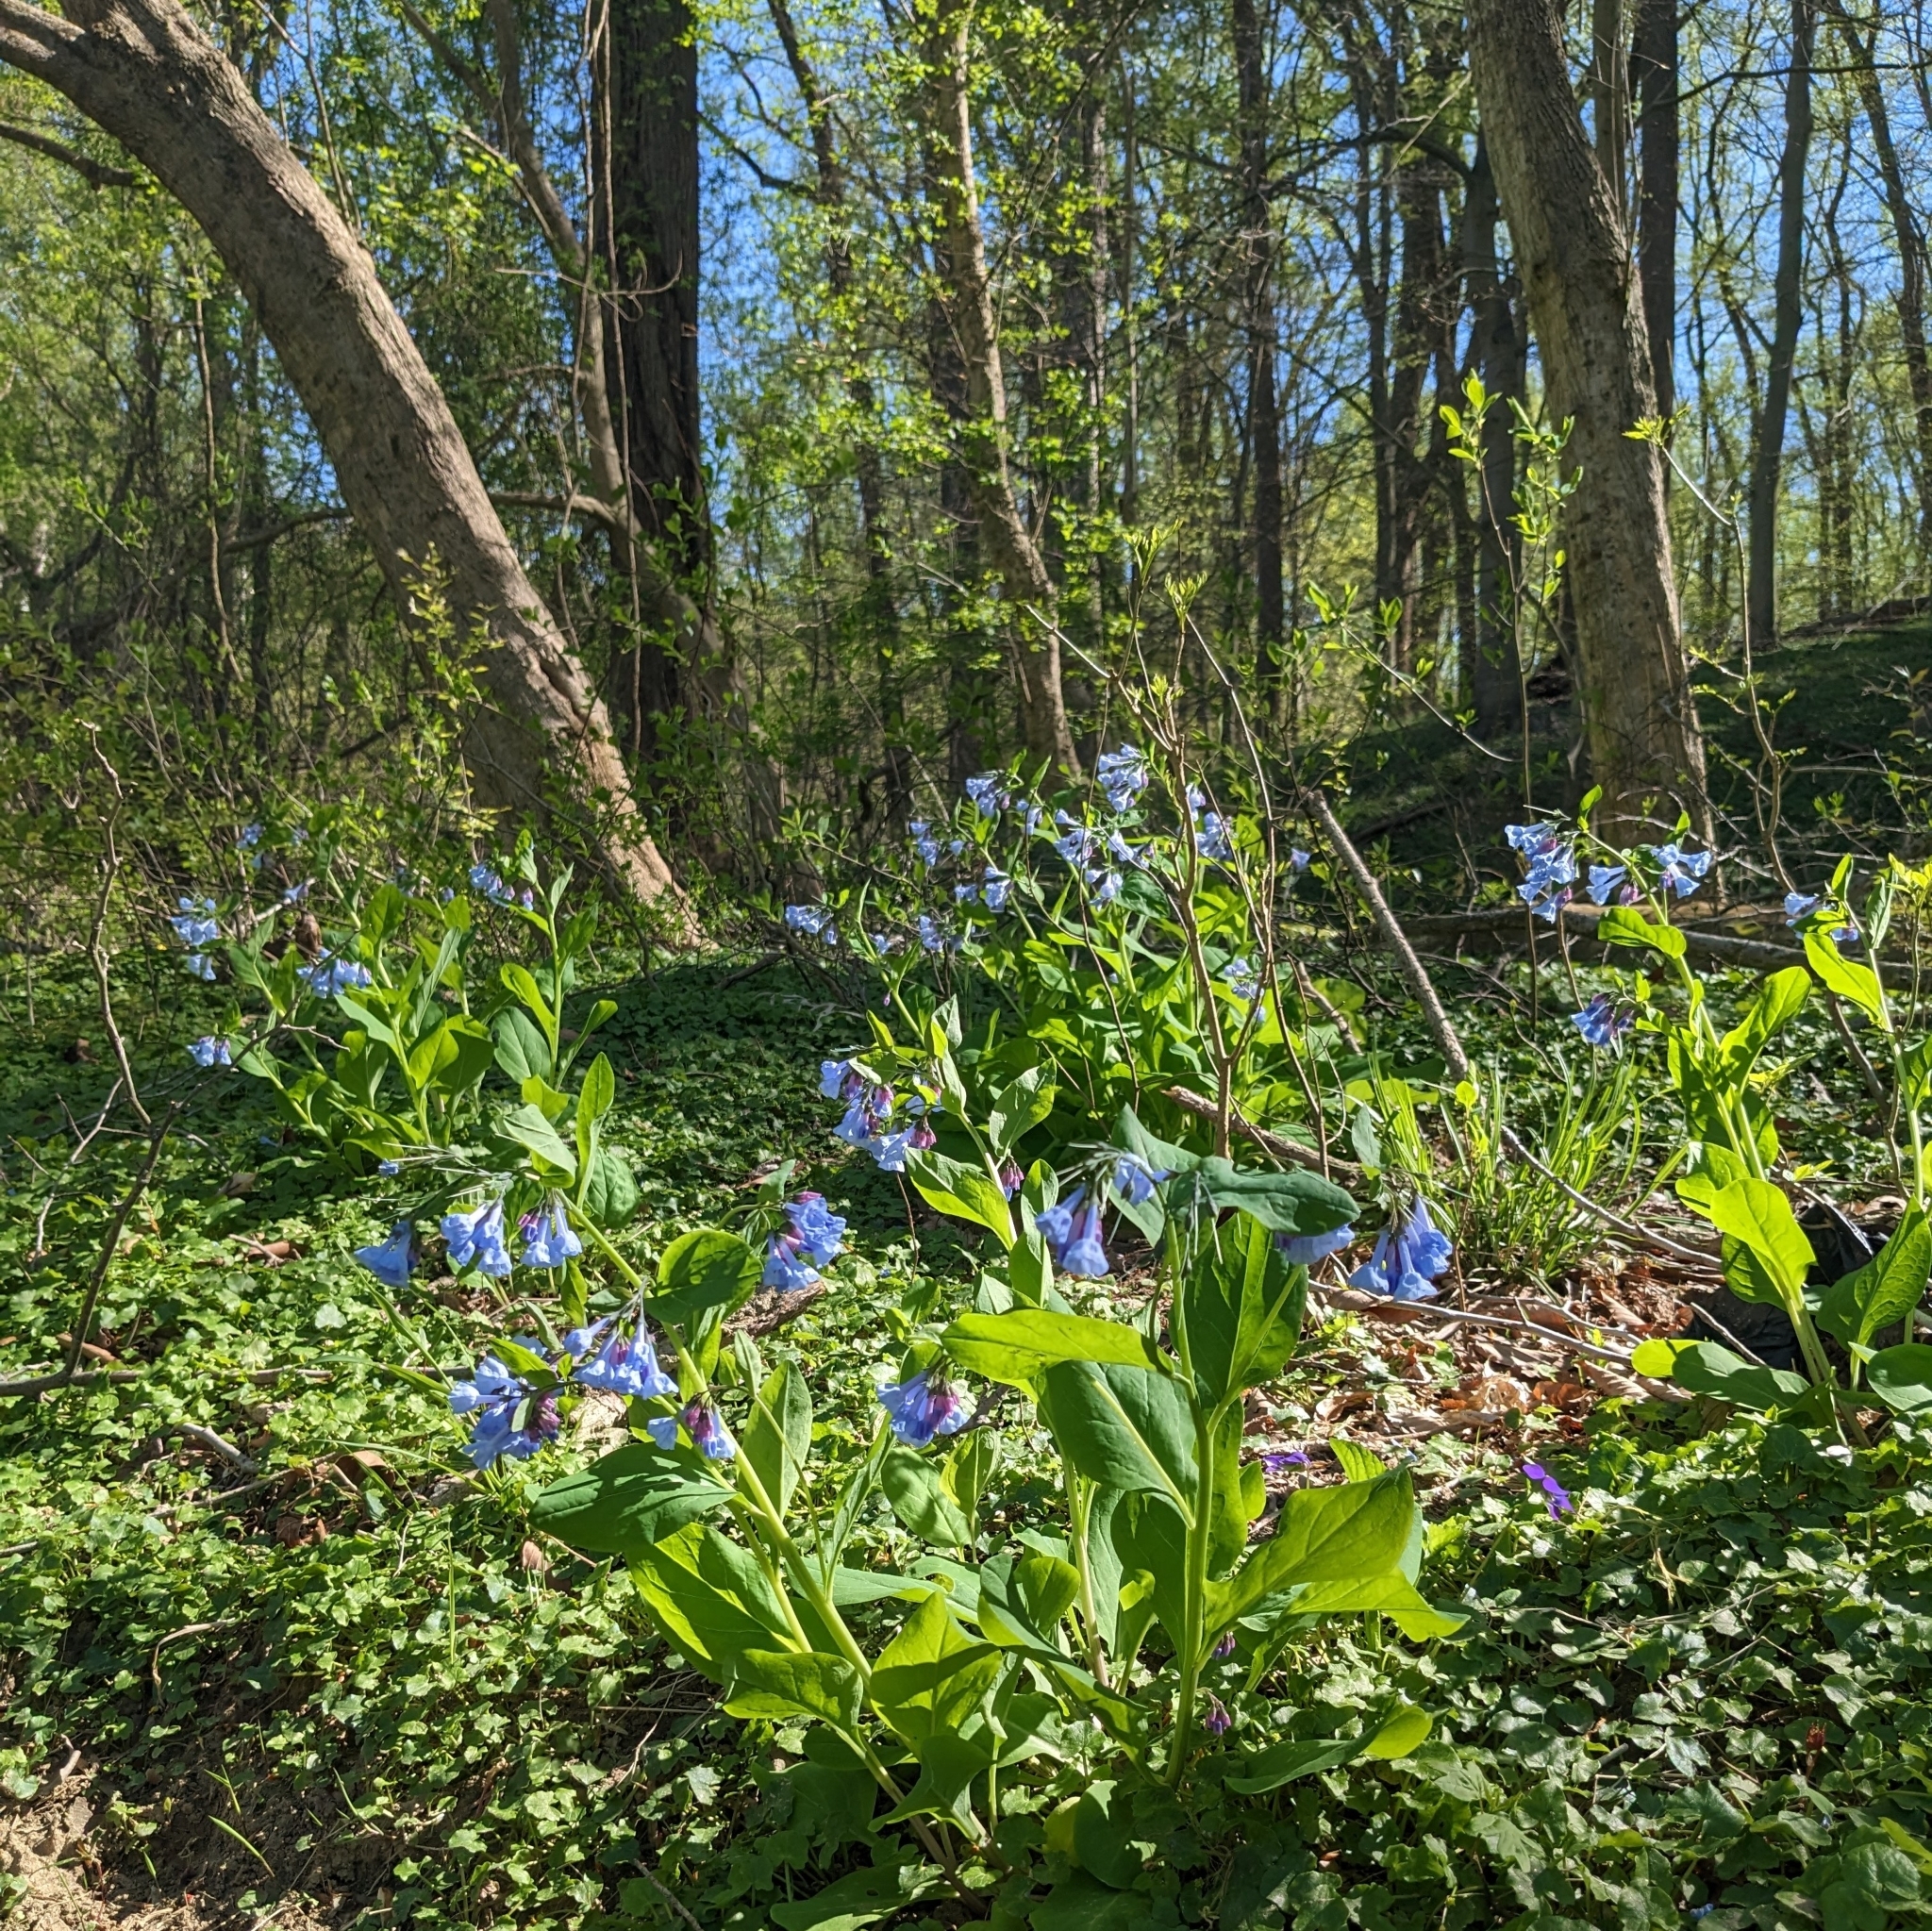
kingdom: Plantae
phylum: Tracheophyta
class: Magnoliopsida
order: Boraginales
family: Boraginaceae
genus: Mertensia
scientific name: Mertensia virginica
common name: Virginia bluebells
